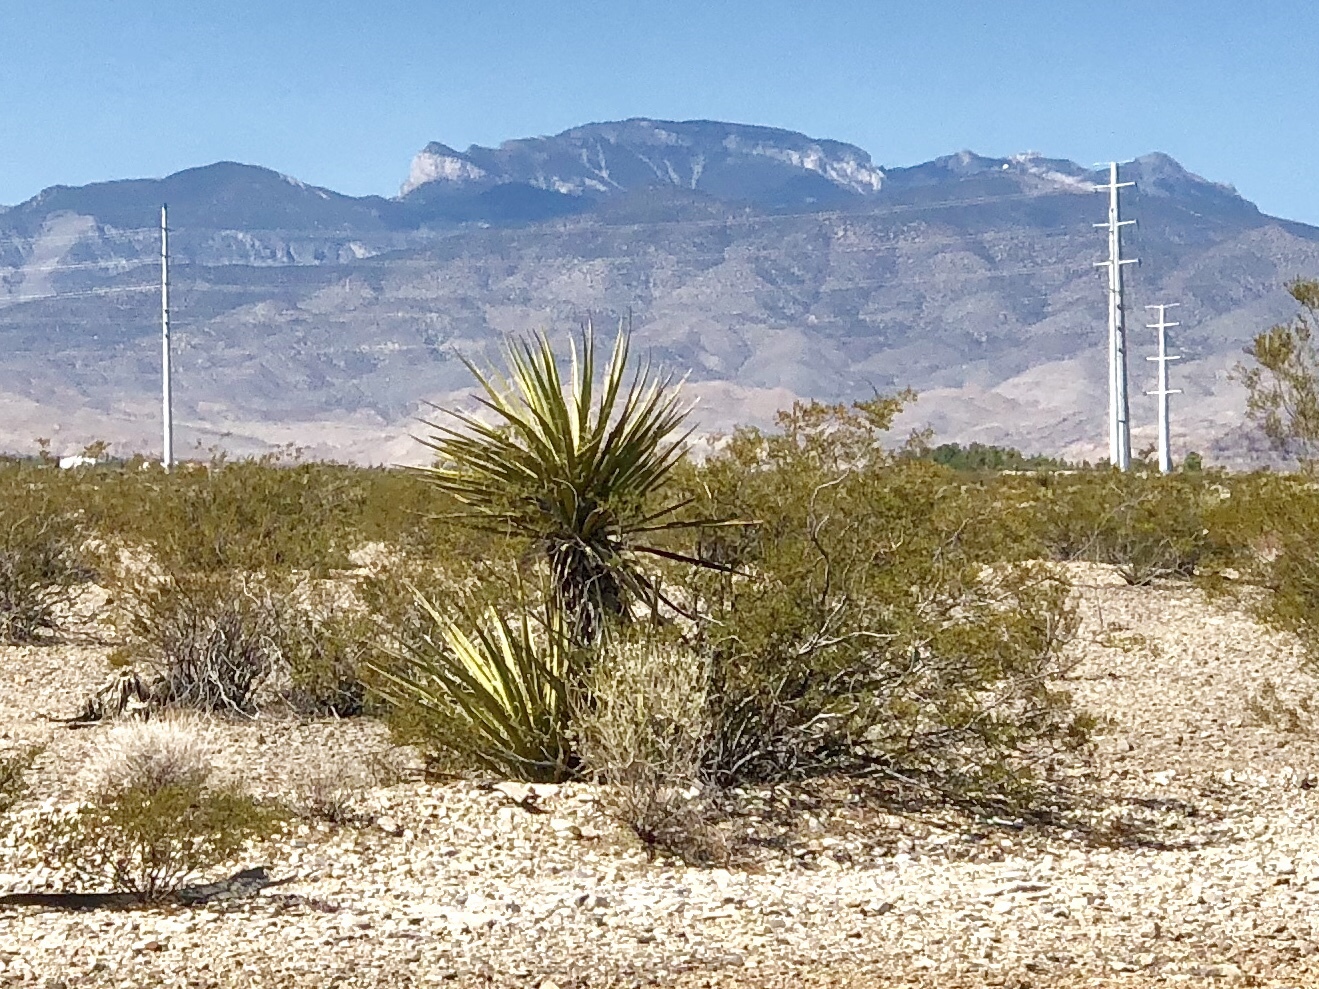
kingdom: Plantae
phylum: Tracheophyta
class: Liliopsida
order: Asparagales
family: Asparagaceae
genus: Yucca
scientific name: Yucca schidigera
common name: Mojave yucca
